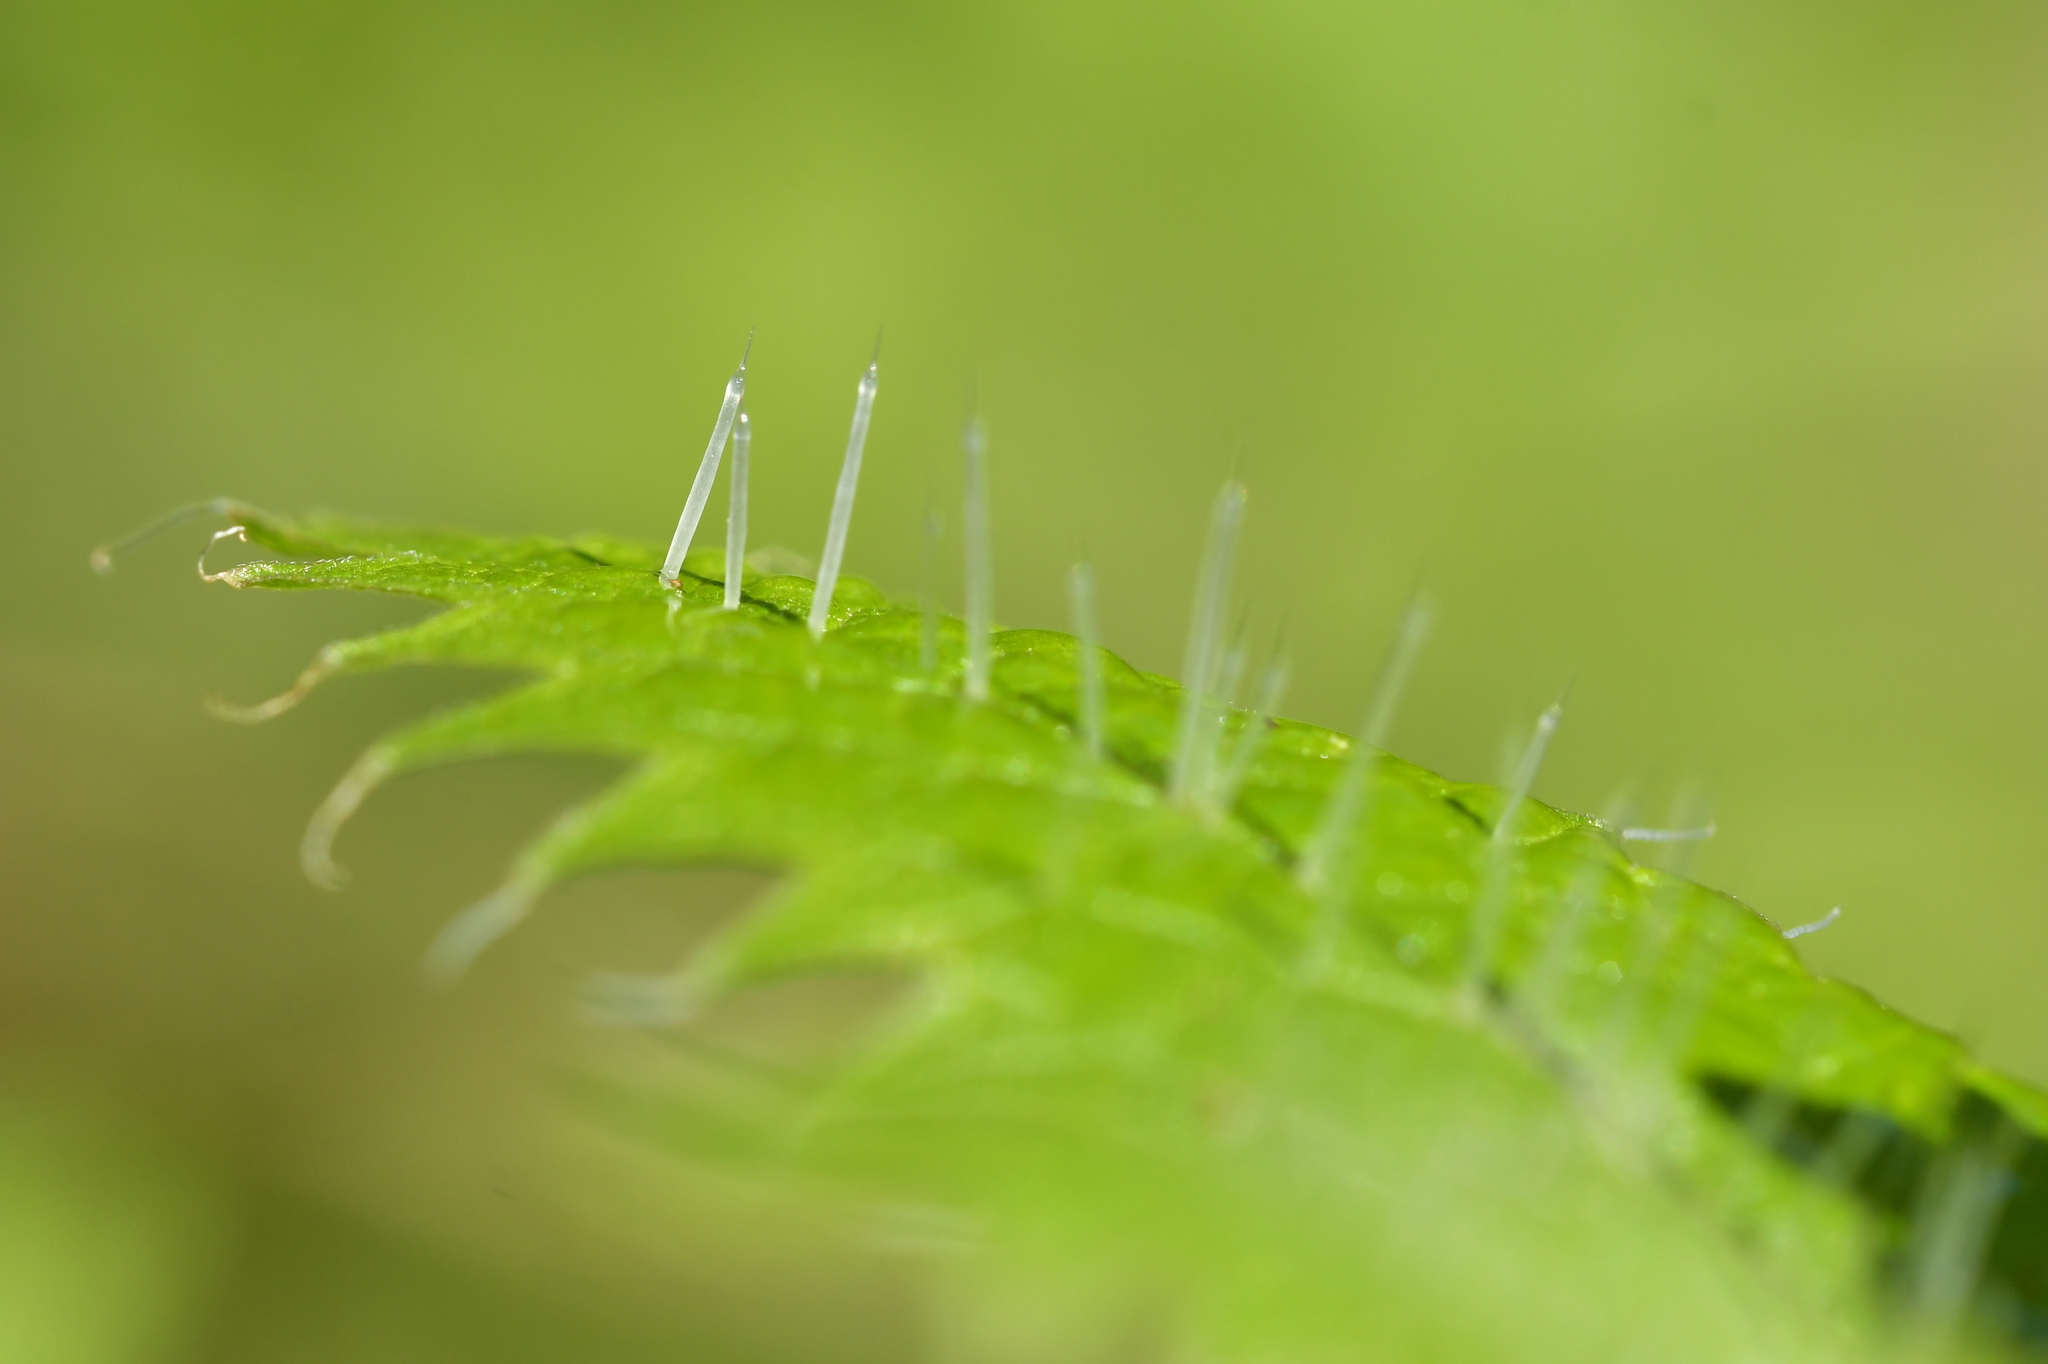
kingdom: Plantae
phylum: Tracheophyta
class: Magnoliopsida
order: Rosales
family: Urticaceae
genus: Urtica
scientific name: Urtica ferox
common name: Tree nettle
